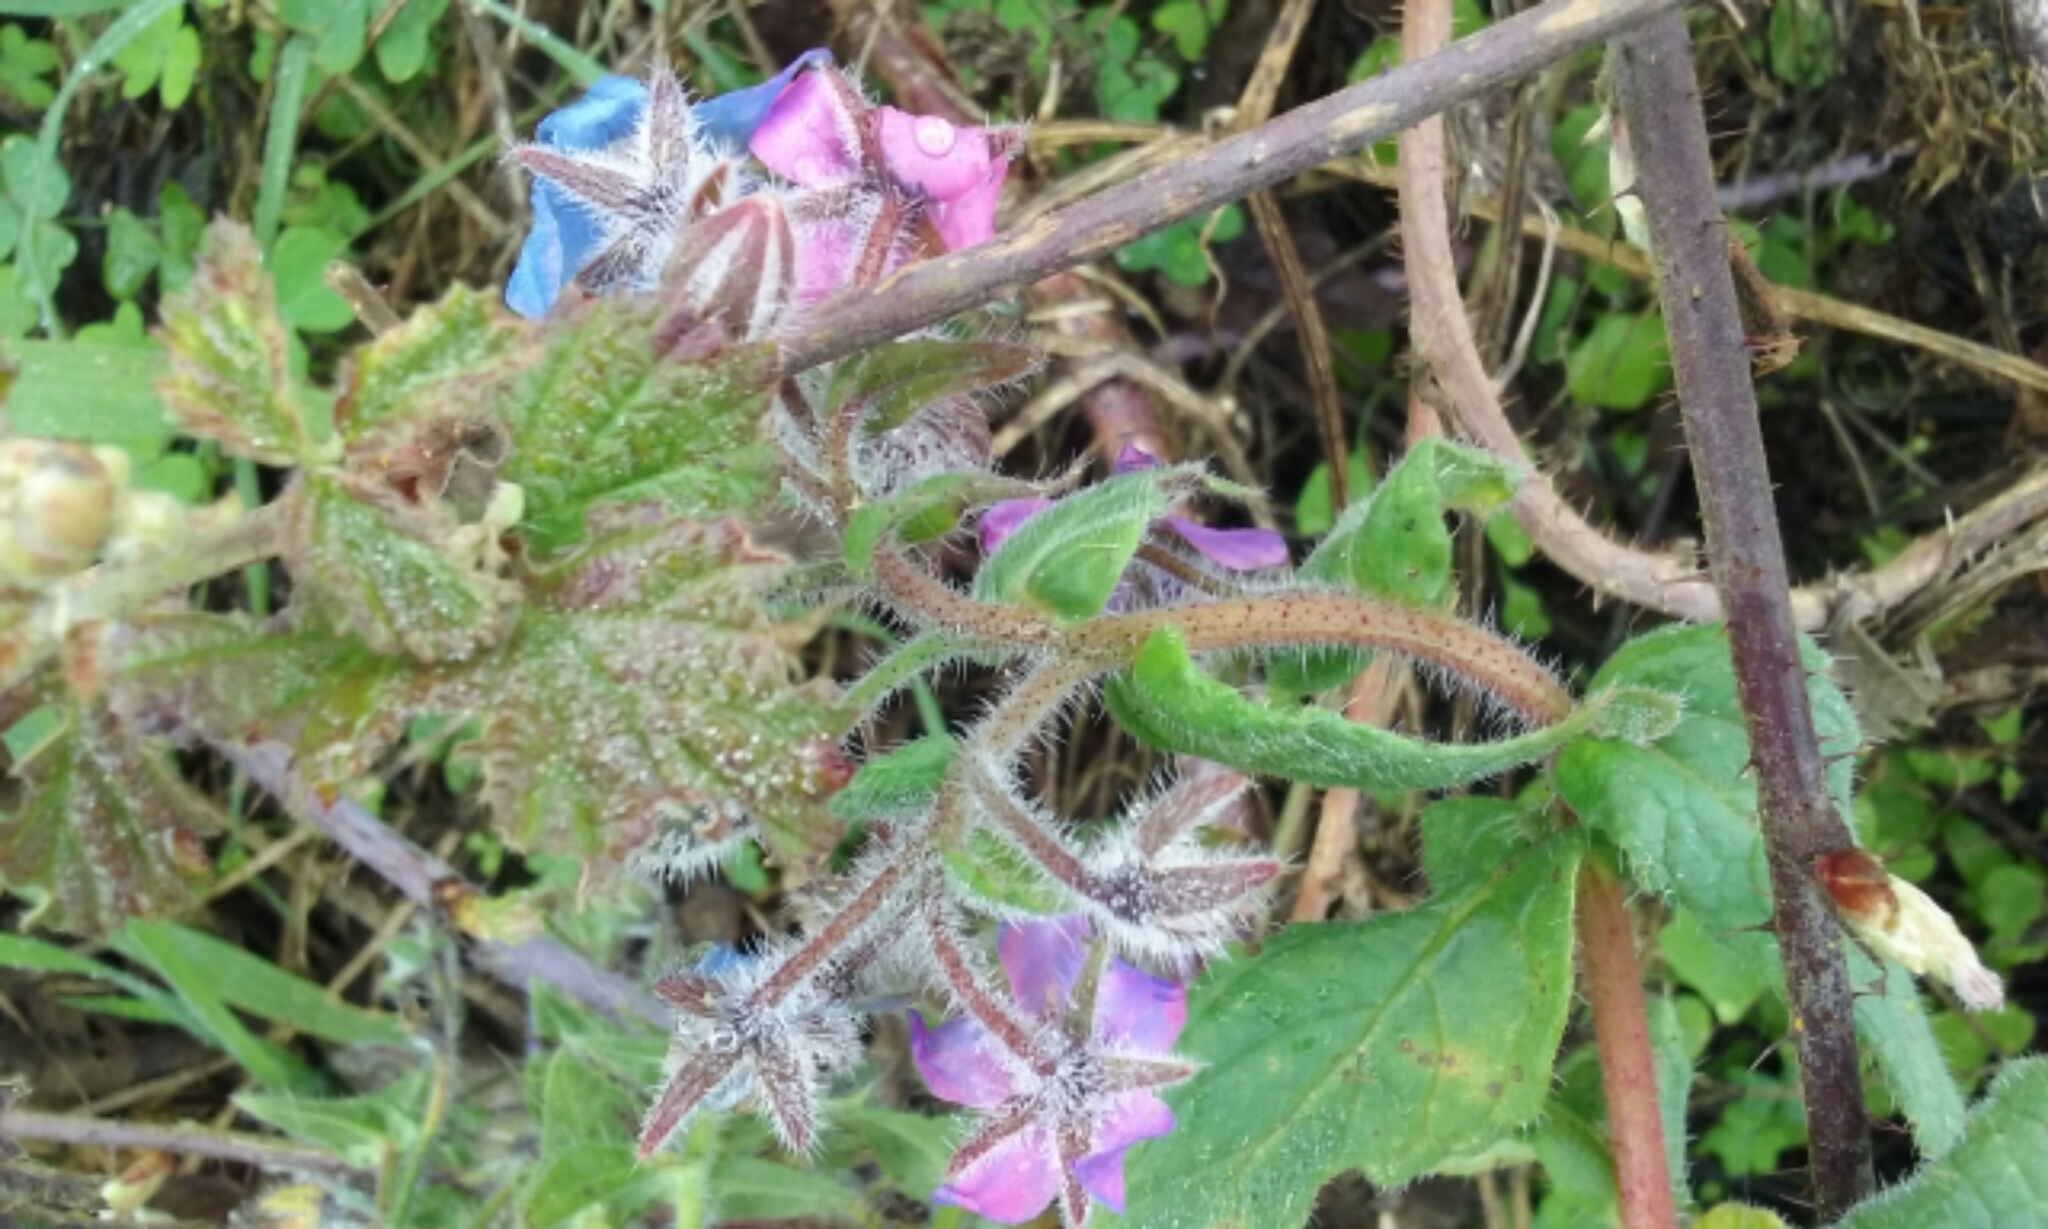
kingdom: Plantae
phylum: Tracheophyta
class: Magnoliopsida
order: Boraginales
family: Boraginaceae
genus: Borago
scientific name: Borago officinalis
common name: Borage
